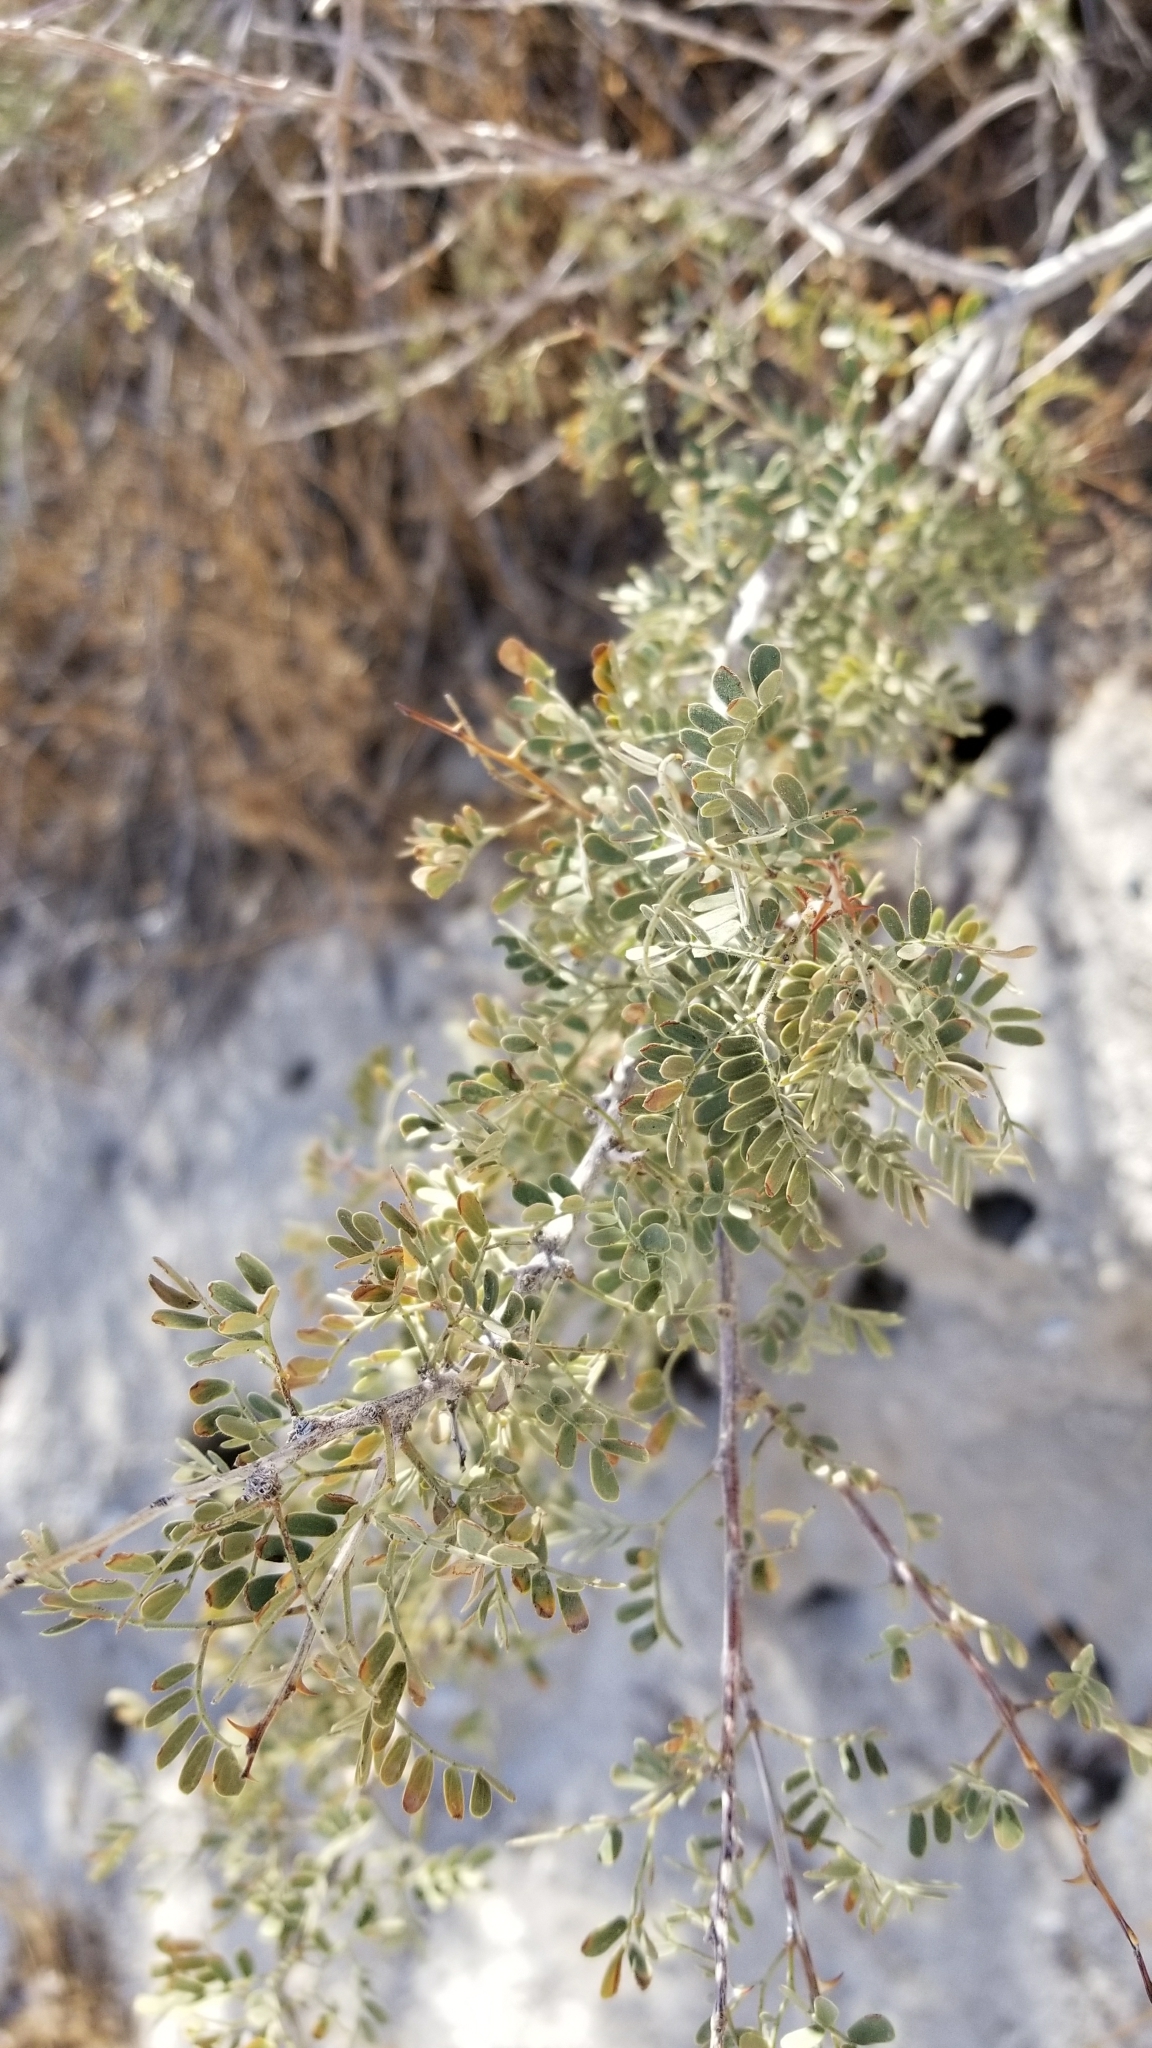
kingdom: Plantae
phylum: Tracheophyta
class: Magnoliopsida
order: Fabales
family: Fabaceae
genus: Senegalia
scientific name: Senegalia greggii
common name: Texas-mimosa
